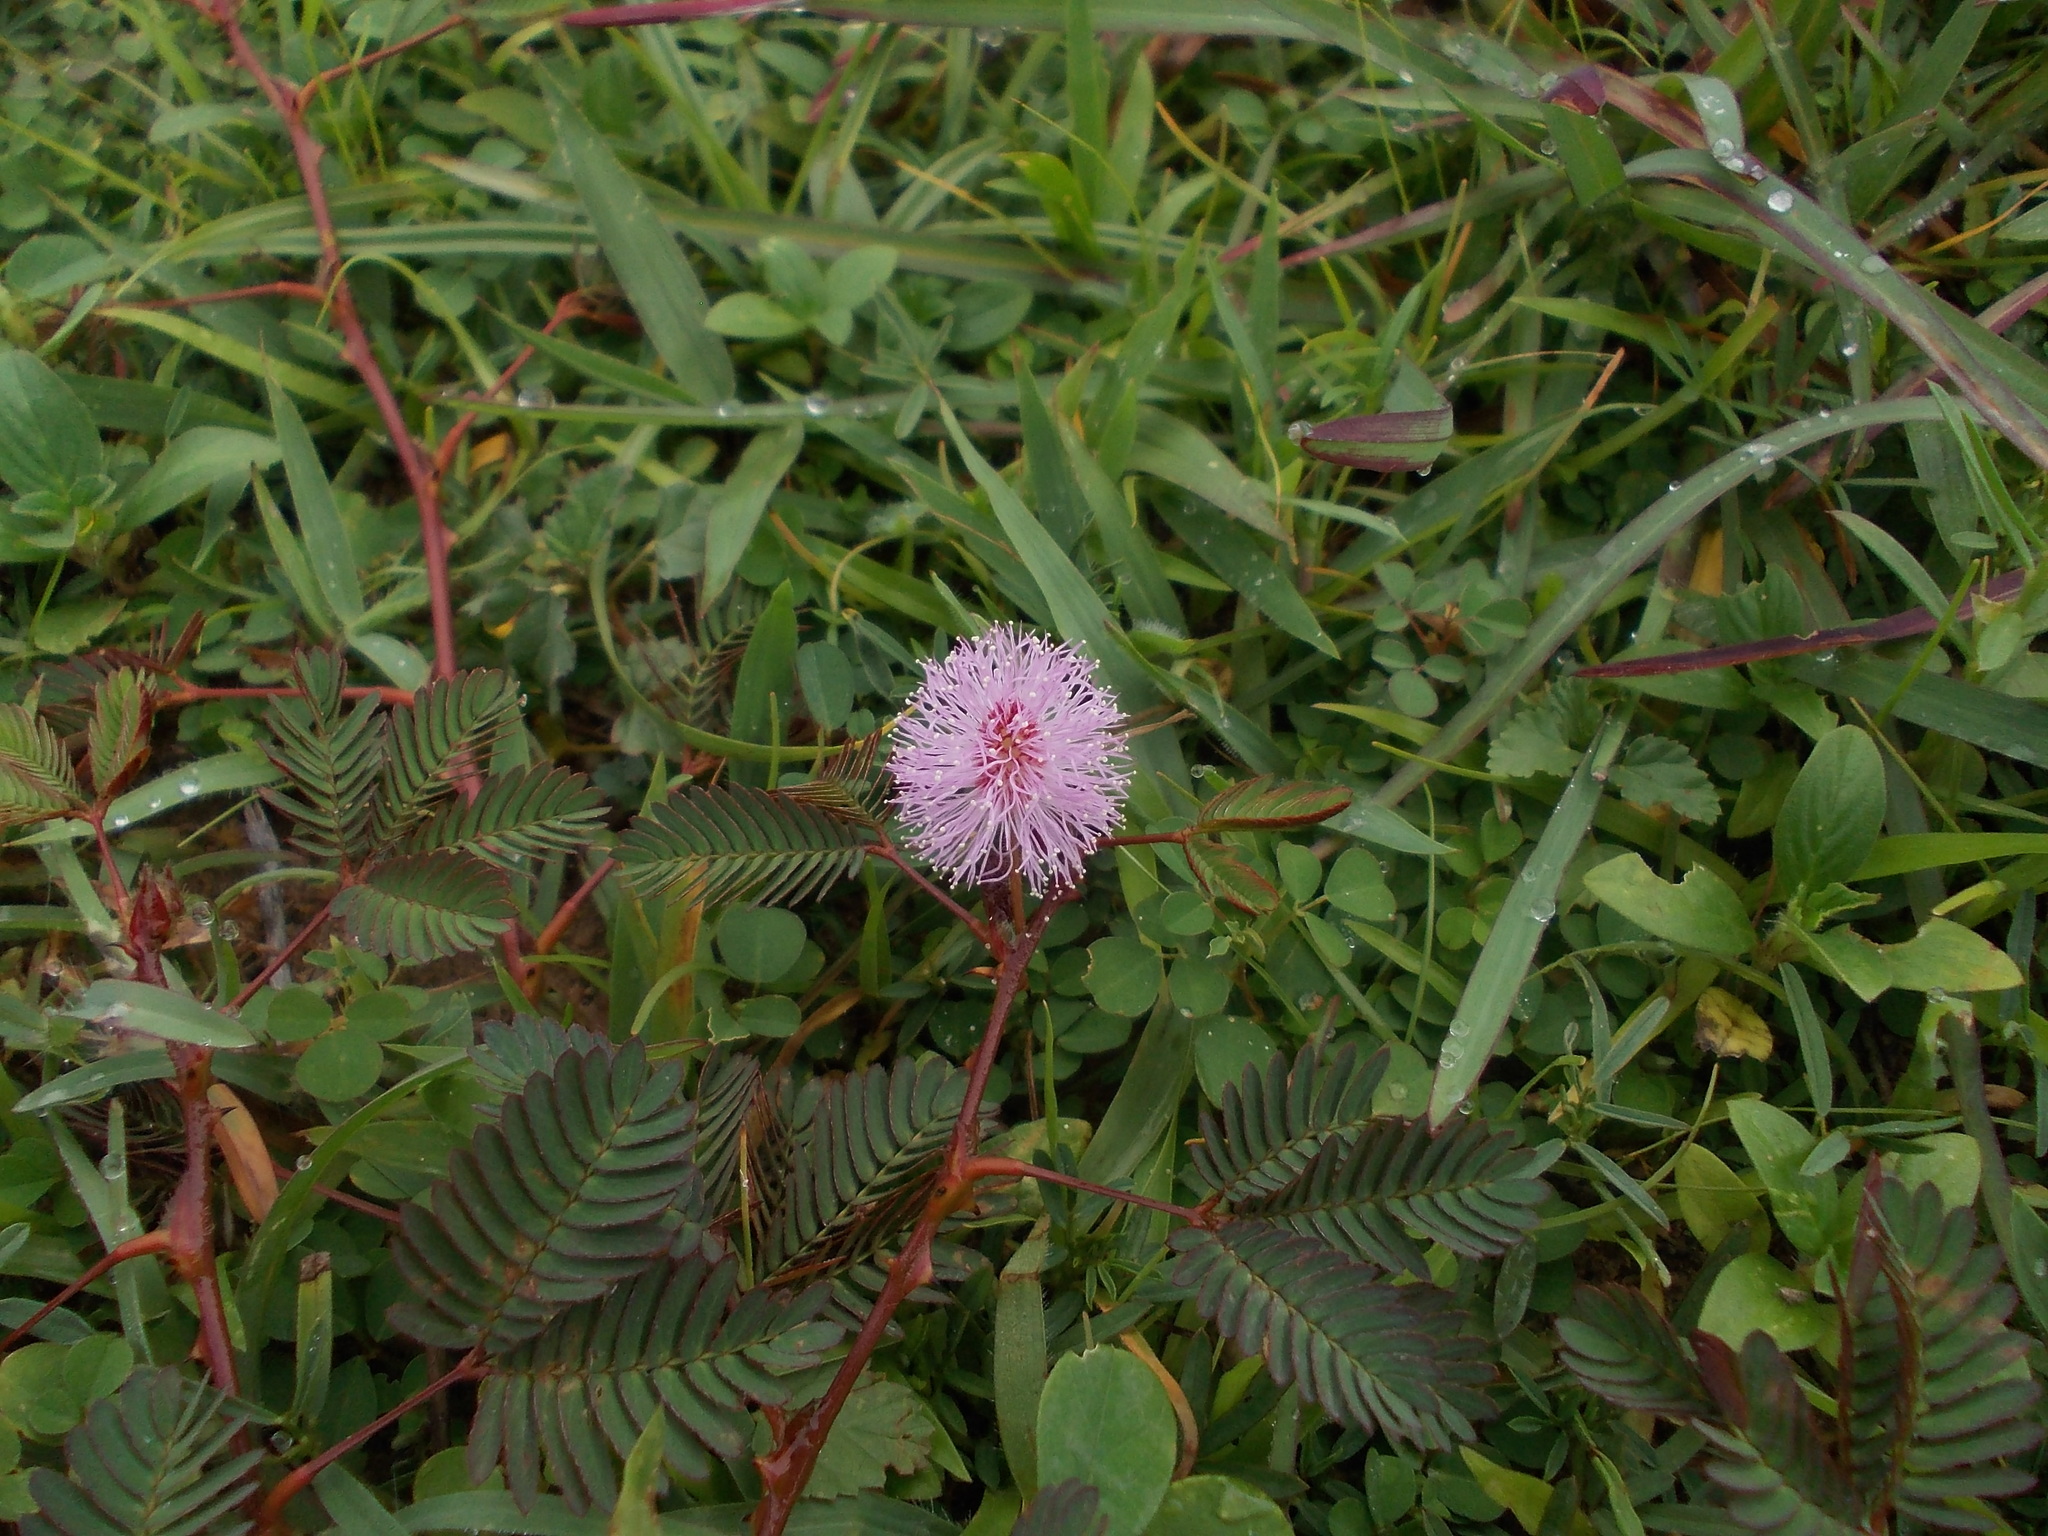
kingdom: Plantae
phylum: Tracheophyta
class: Magnoliopsida
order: Fabales
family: Fabaceae
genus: Mimosa
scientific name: Mimosa pudica
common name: Sensitive plant
